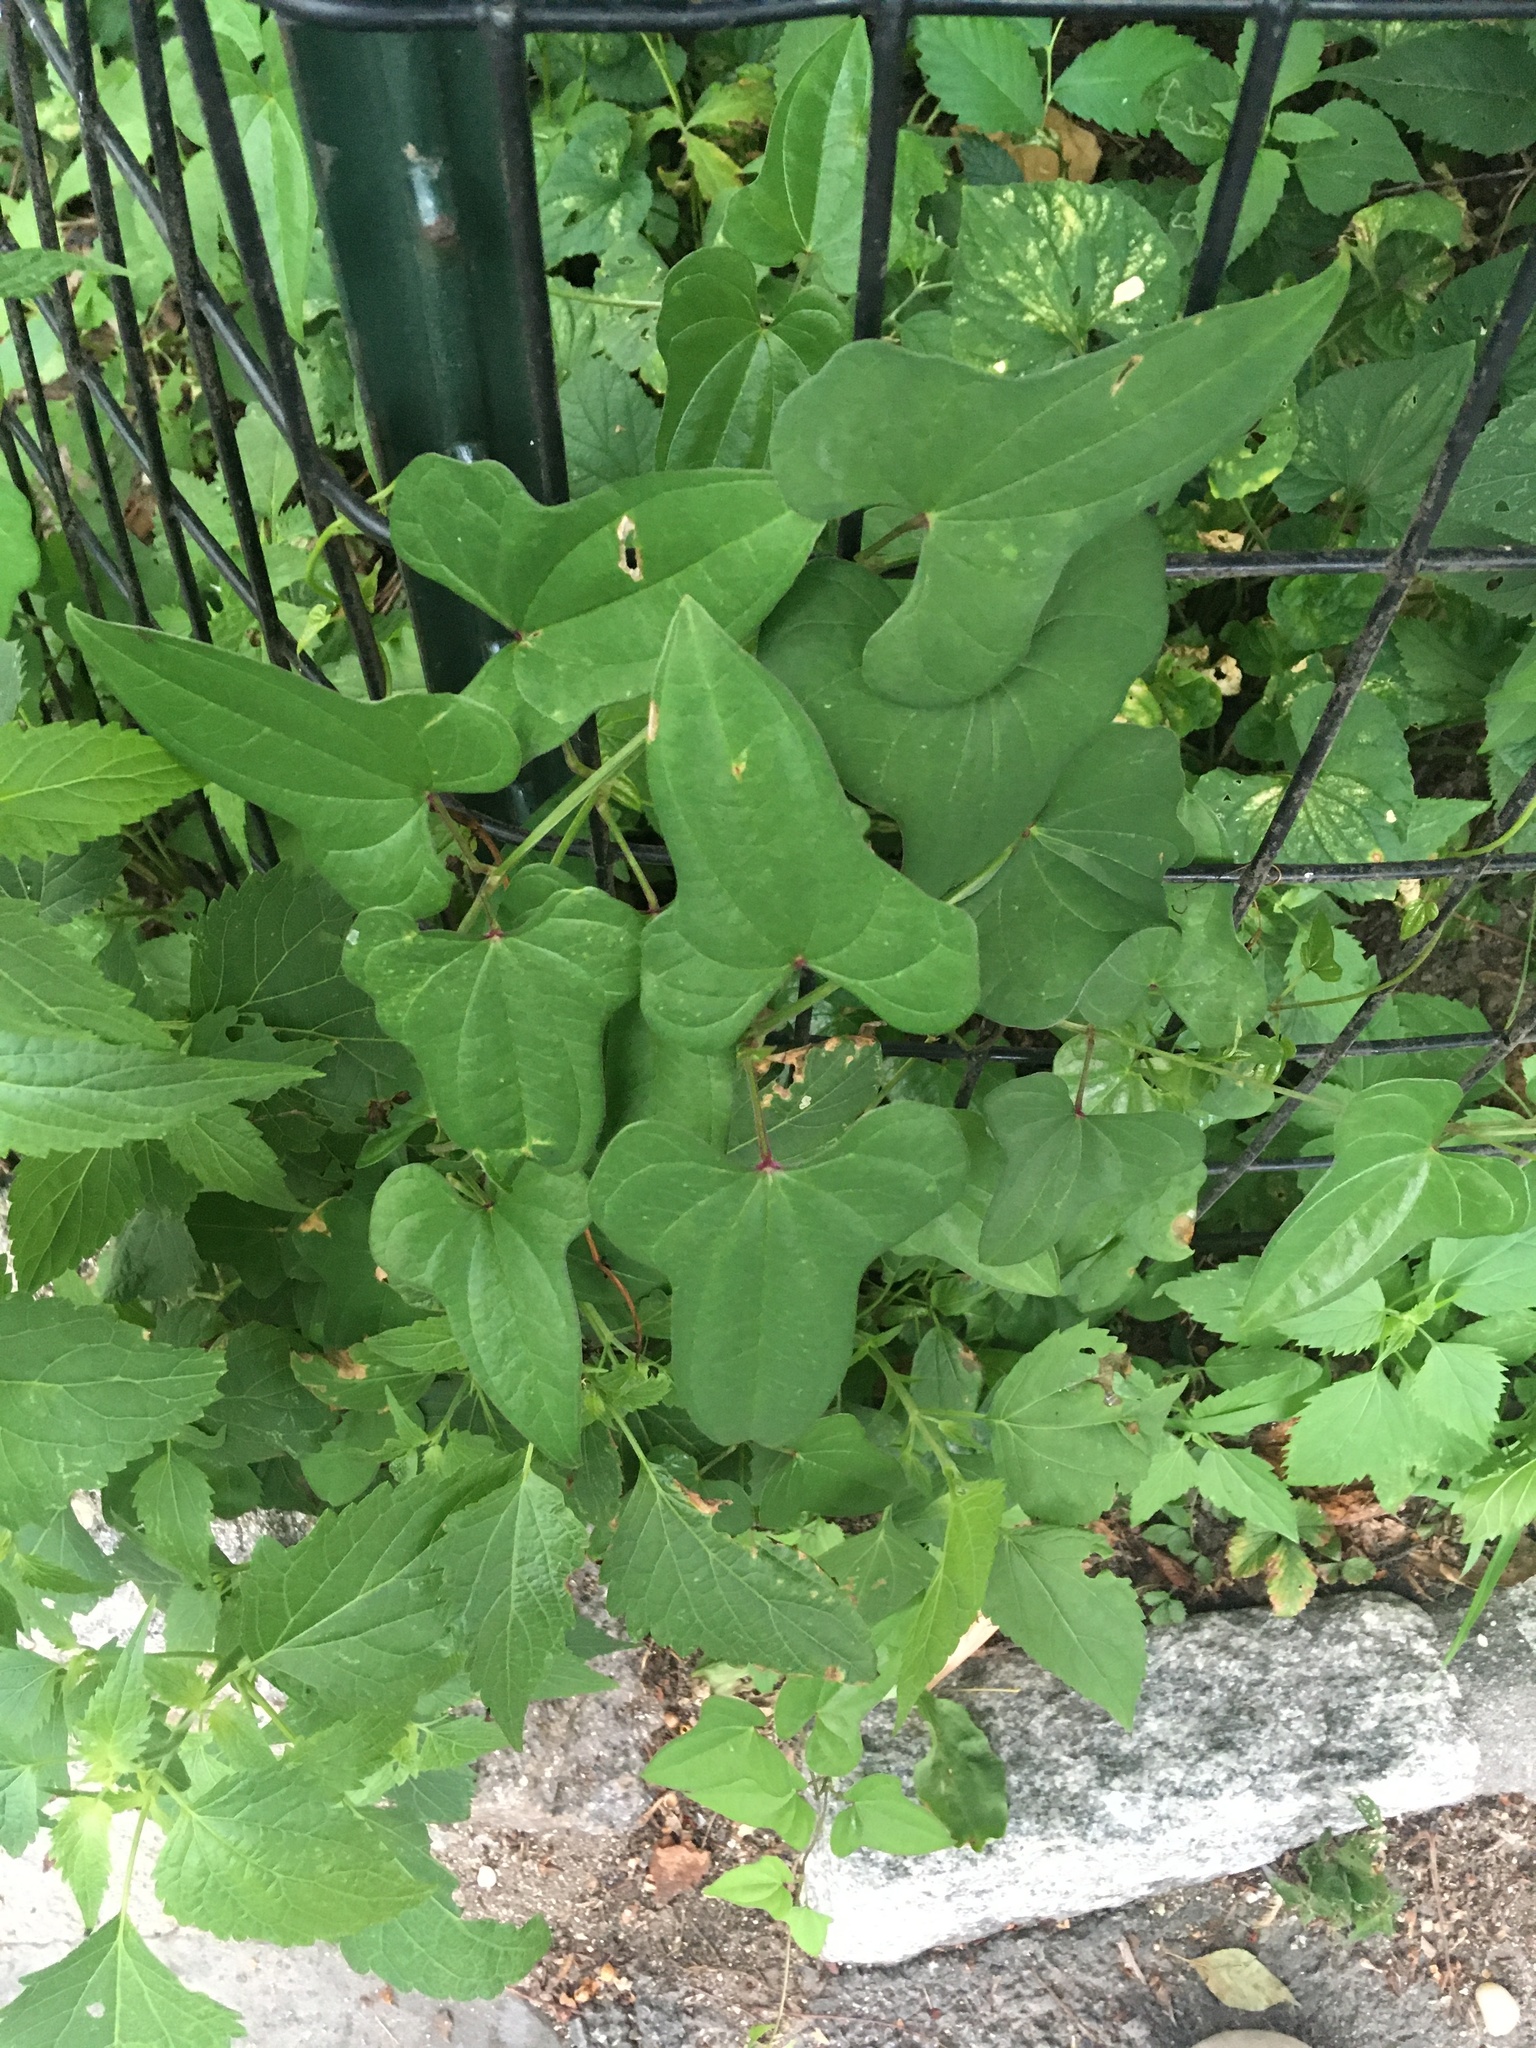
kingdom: Plantae
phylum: Tracheophyta
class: Liliopsida
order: Dioscoreales
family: Dioscoreaceae
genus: Dioscorea
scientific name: Dioscorea polystachya
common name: Chinese yam
